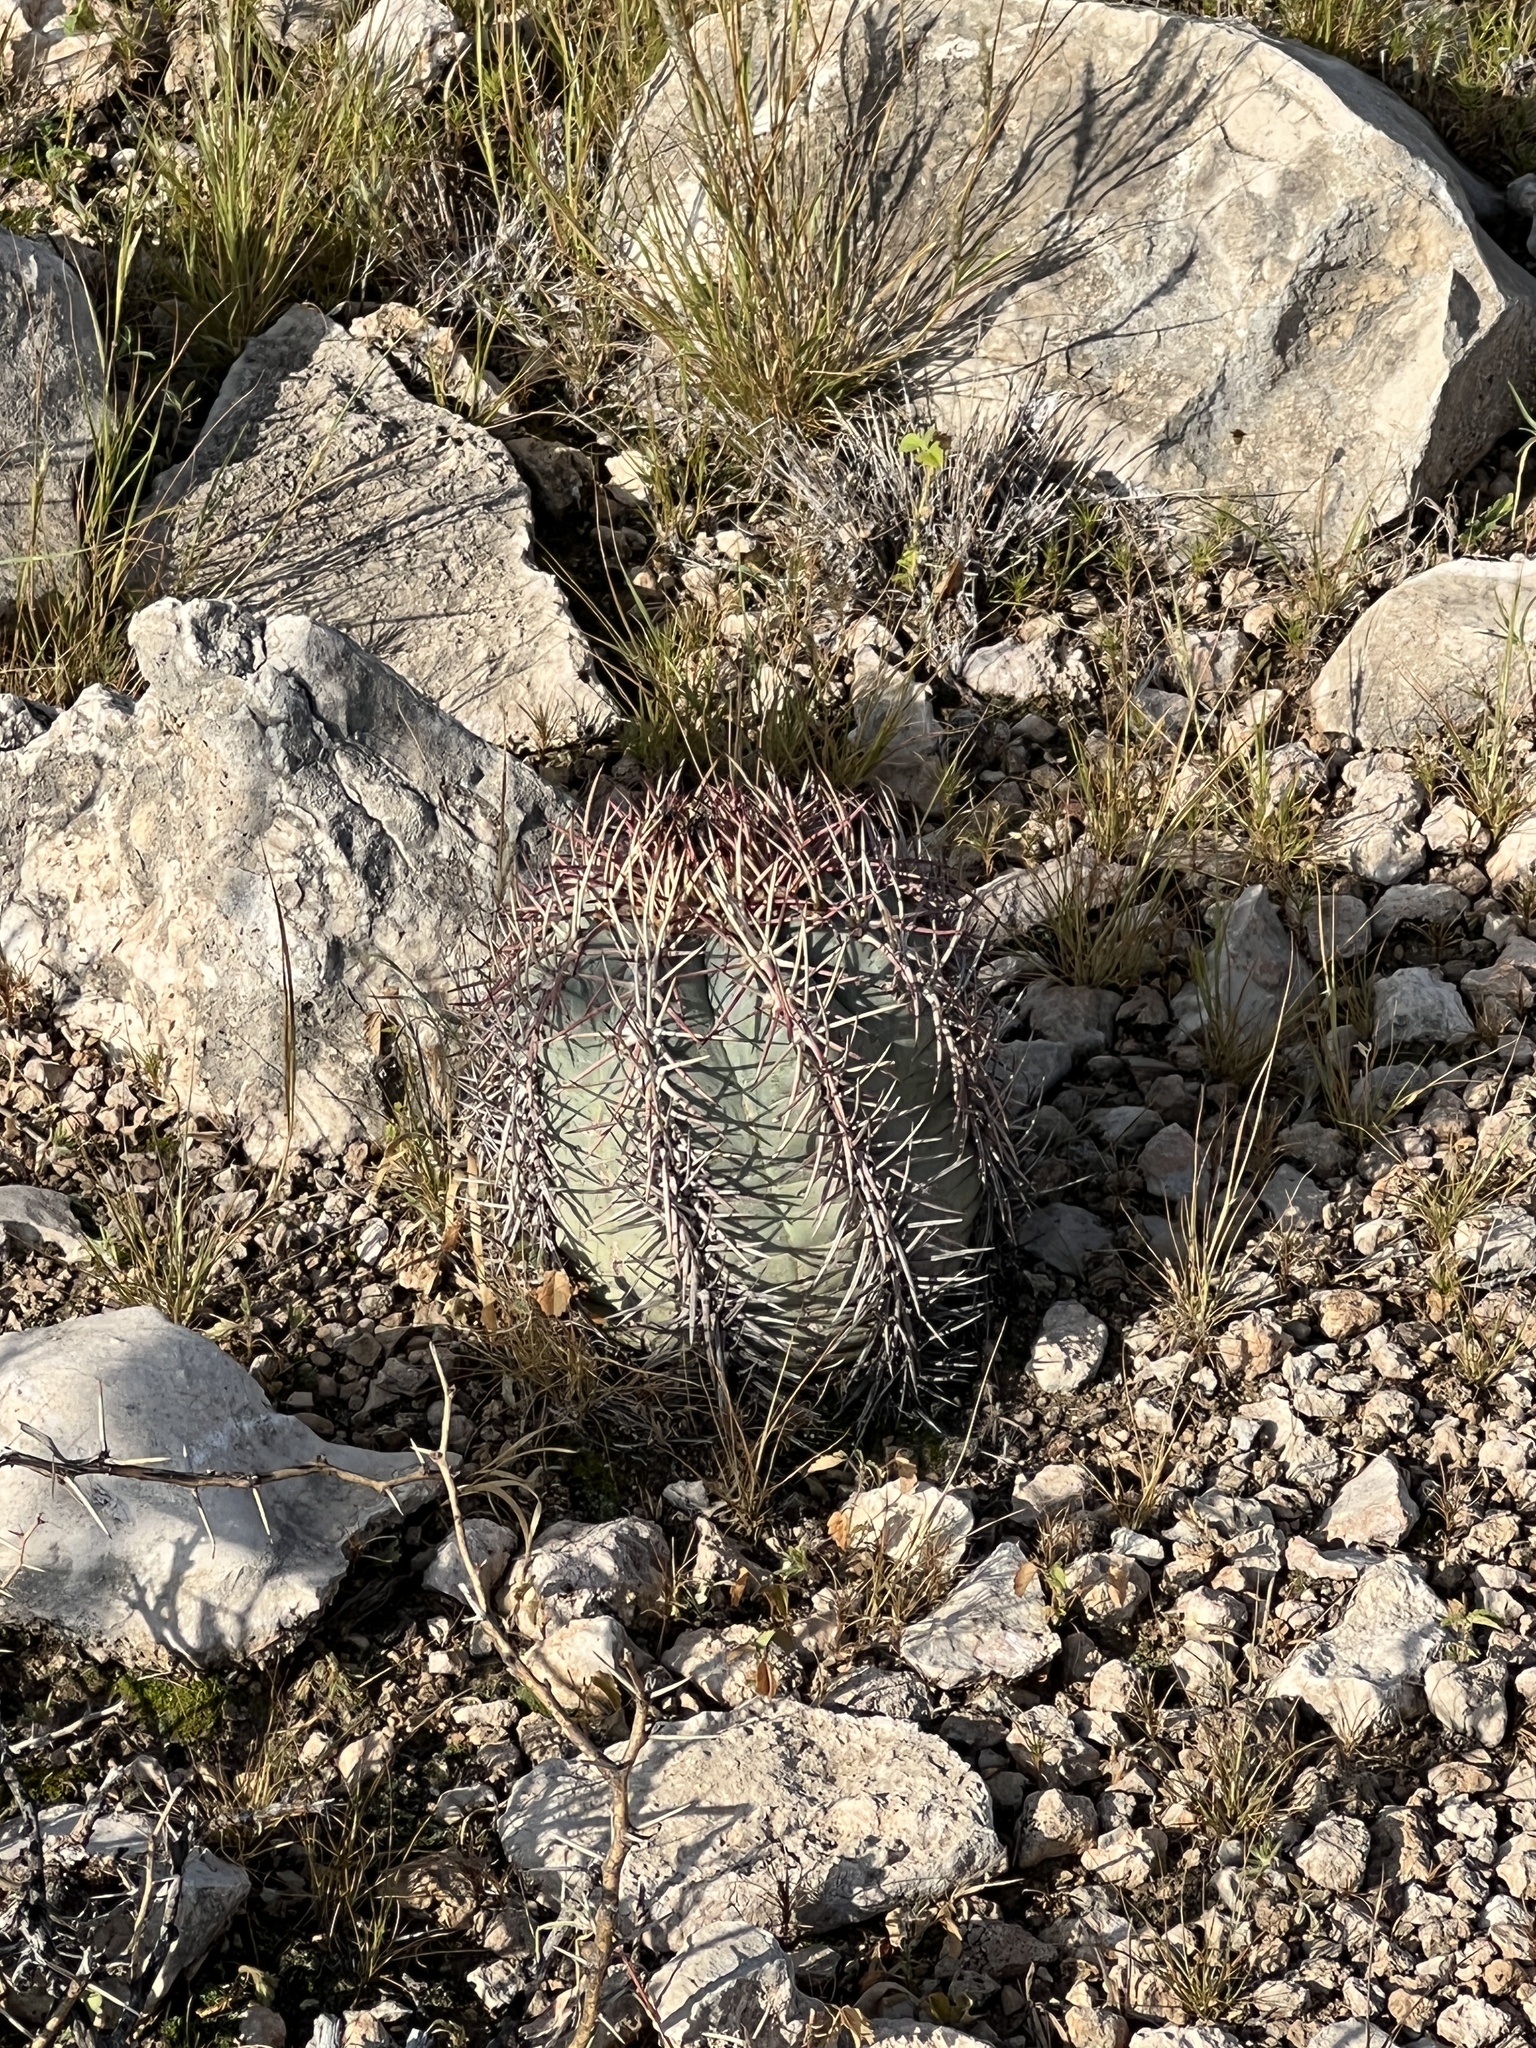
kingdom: Plantae
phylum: Tracheophyta
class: Magnoliopsida
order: Caryophyllales
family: Cactaceae
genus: Echinocactus
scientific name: Echinocactus horizonthalonius
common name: Devilshead
